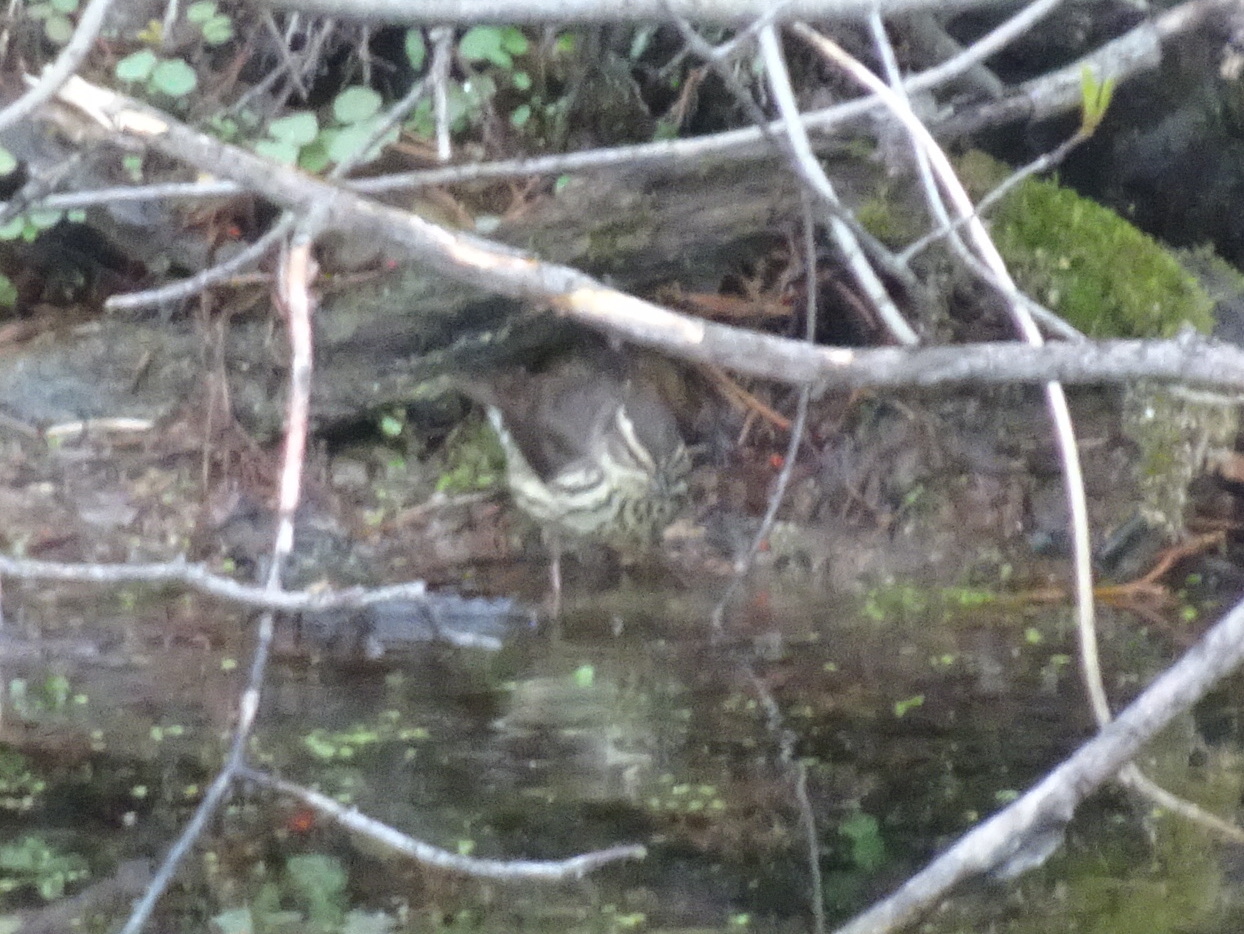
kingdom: Animalia
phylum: Chordata
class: Aves
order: Passeriformes
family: Parulidae
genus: Parkesia
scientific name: Parkesia noveboracensis
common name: Northern waterthrush
